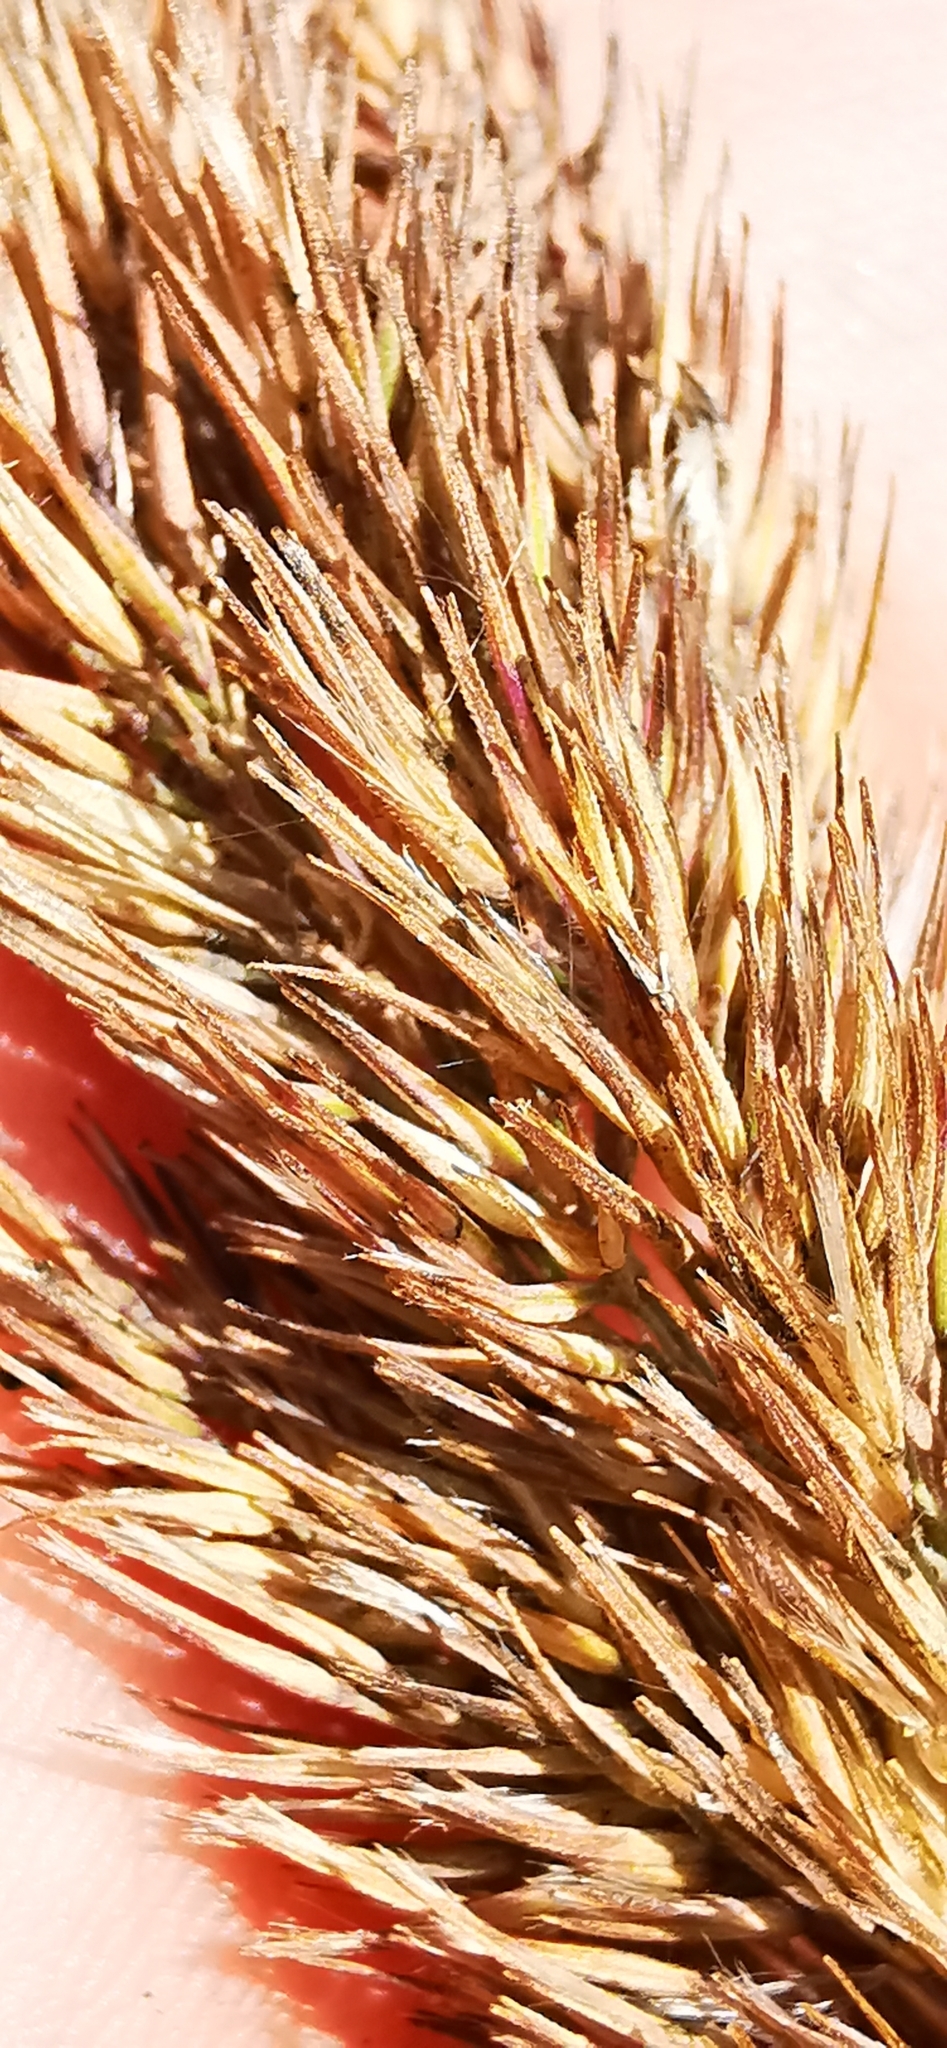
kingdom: Plantae
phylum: Tracheophyta
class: Liliopsida
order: Poales
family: Poaceae
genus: Calamagrostis
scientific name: Calamagrostis epigejos
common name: Wood small-reed
